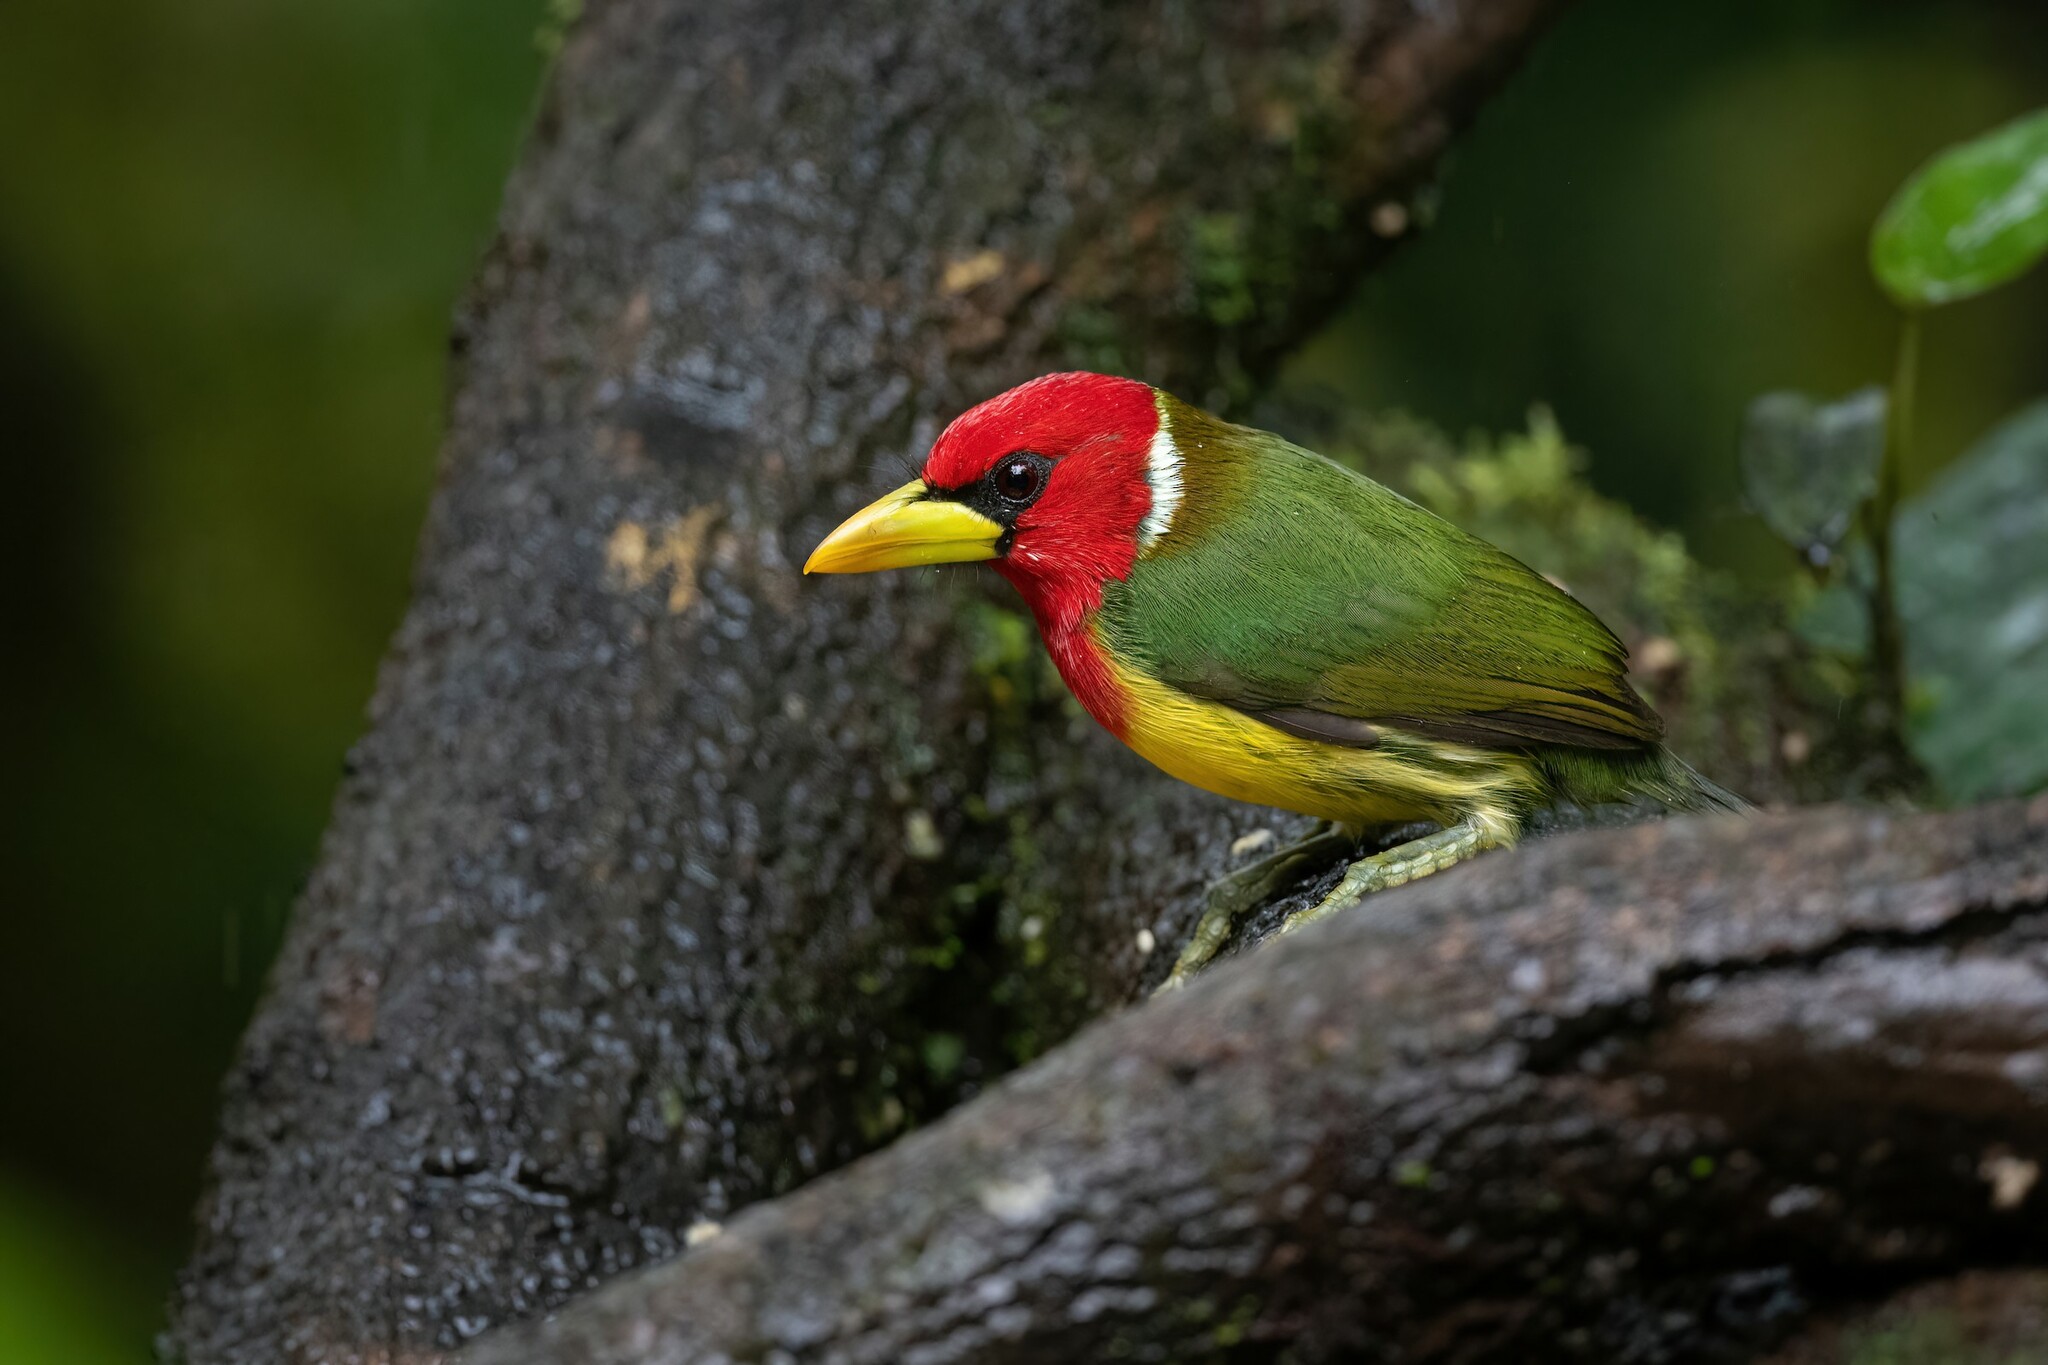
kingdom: Animalia
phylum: Chordata
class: Aves
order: Piciformes
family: Capitonidae
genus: Eubucco
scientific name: Eubucco bourcierii
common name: Red-headed barbet
